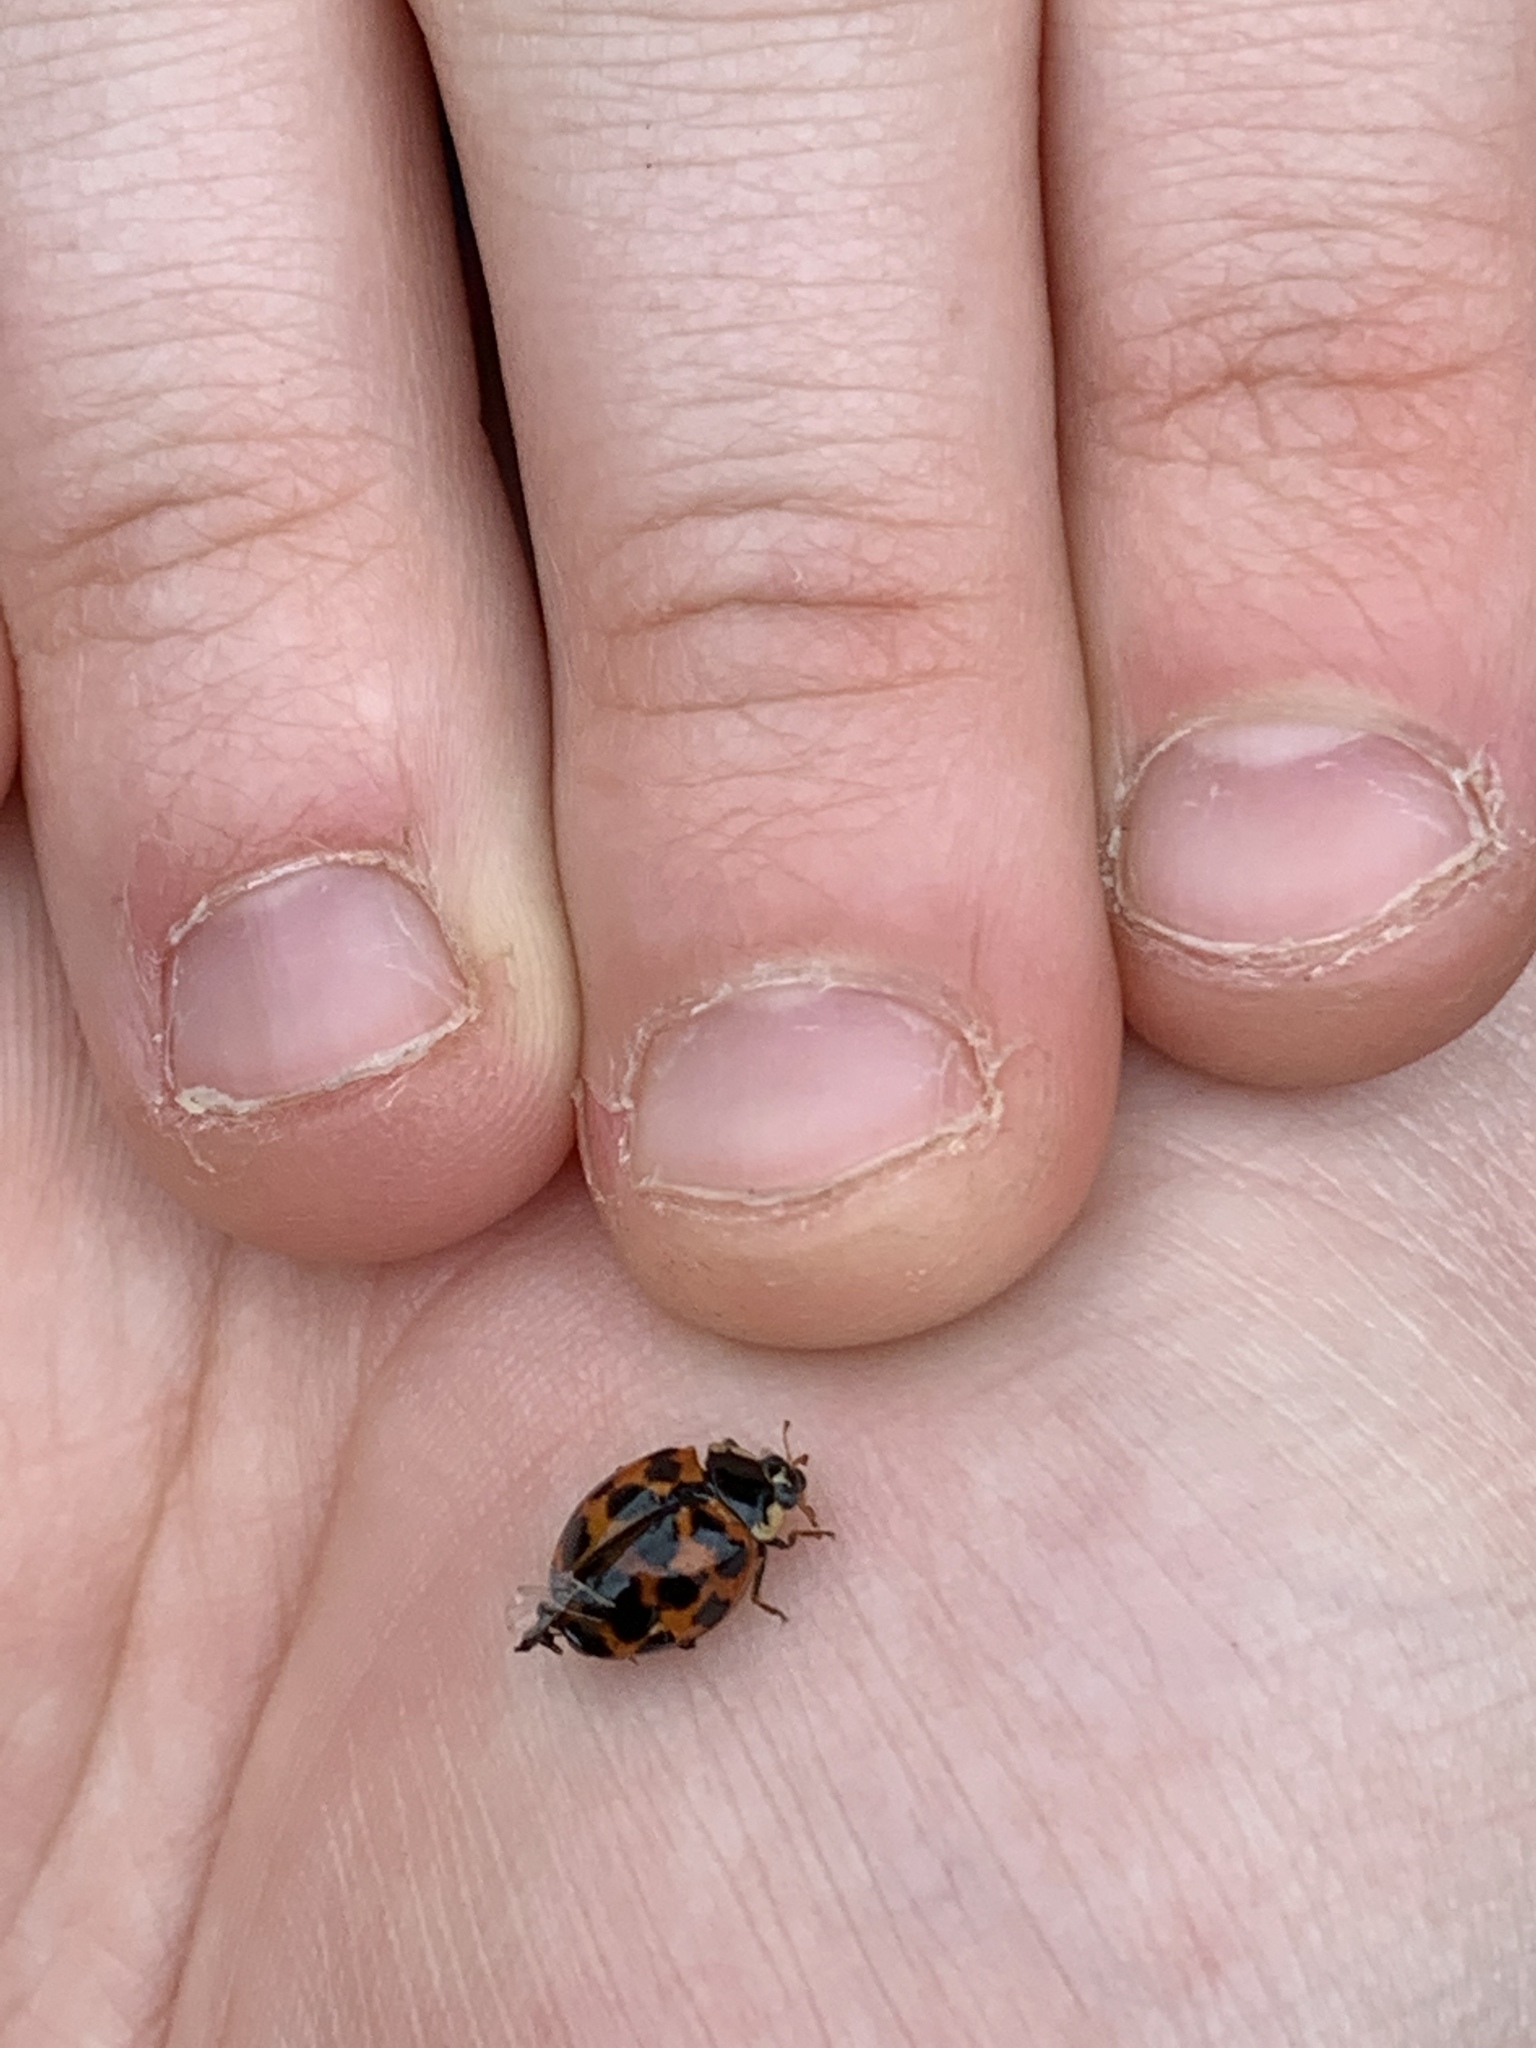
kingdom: Animalia
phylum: Arthropoda
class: Insecta
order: Coleoptera
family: Coccinellidae
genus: Harmonia
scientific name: Harmonia axyridis
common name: Harlequin ladybird
